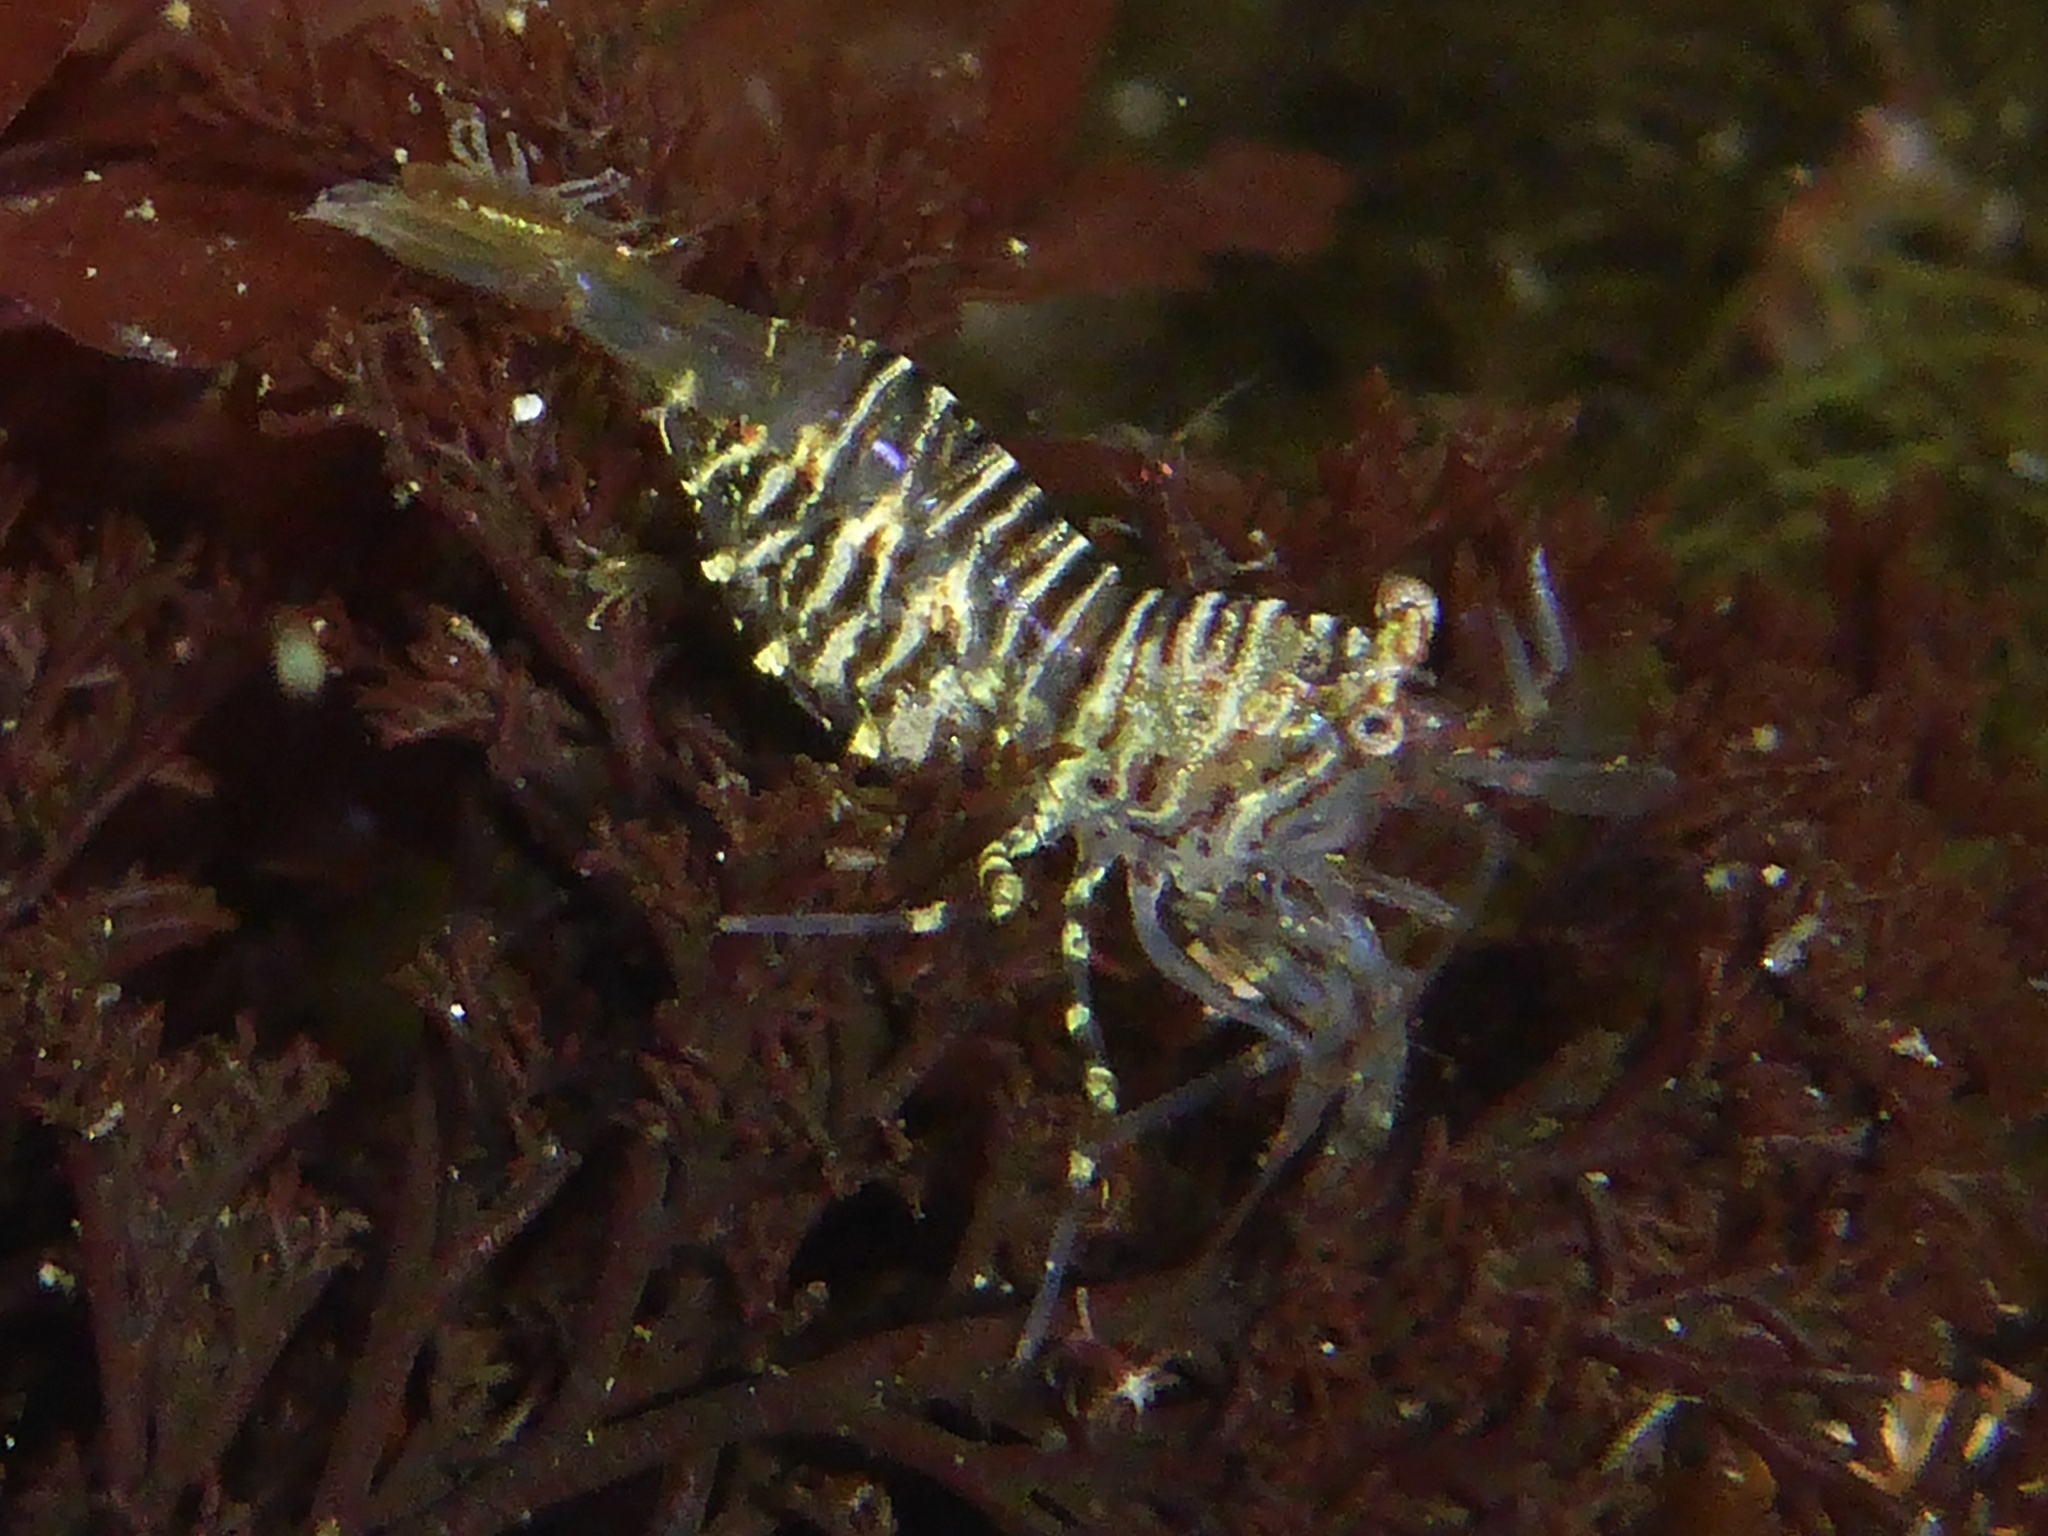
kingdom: Animalia
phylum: Arthropoda
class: Malacostraca
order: Decapoda
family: Thoridae
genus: Heptacarpus
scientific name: Heptacarpus pugettensis
